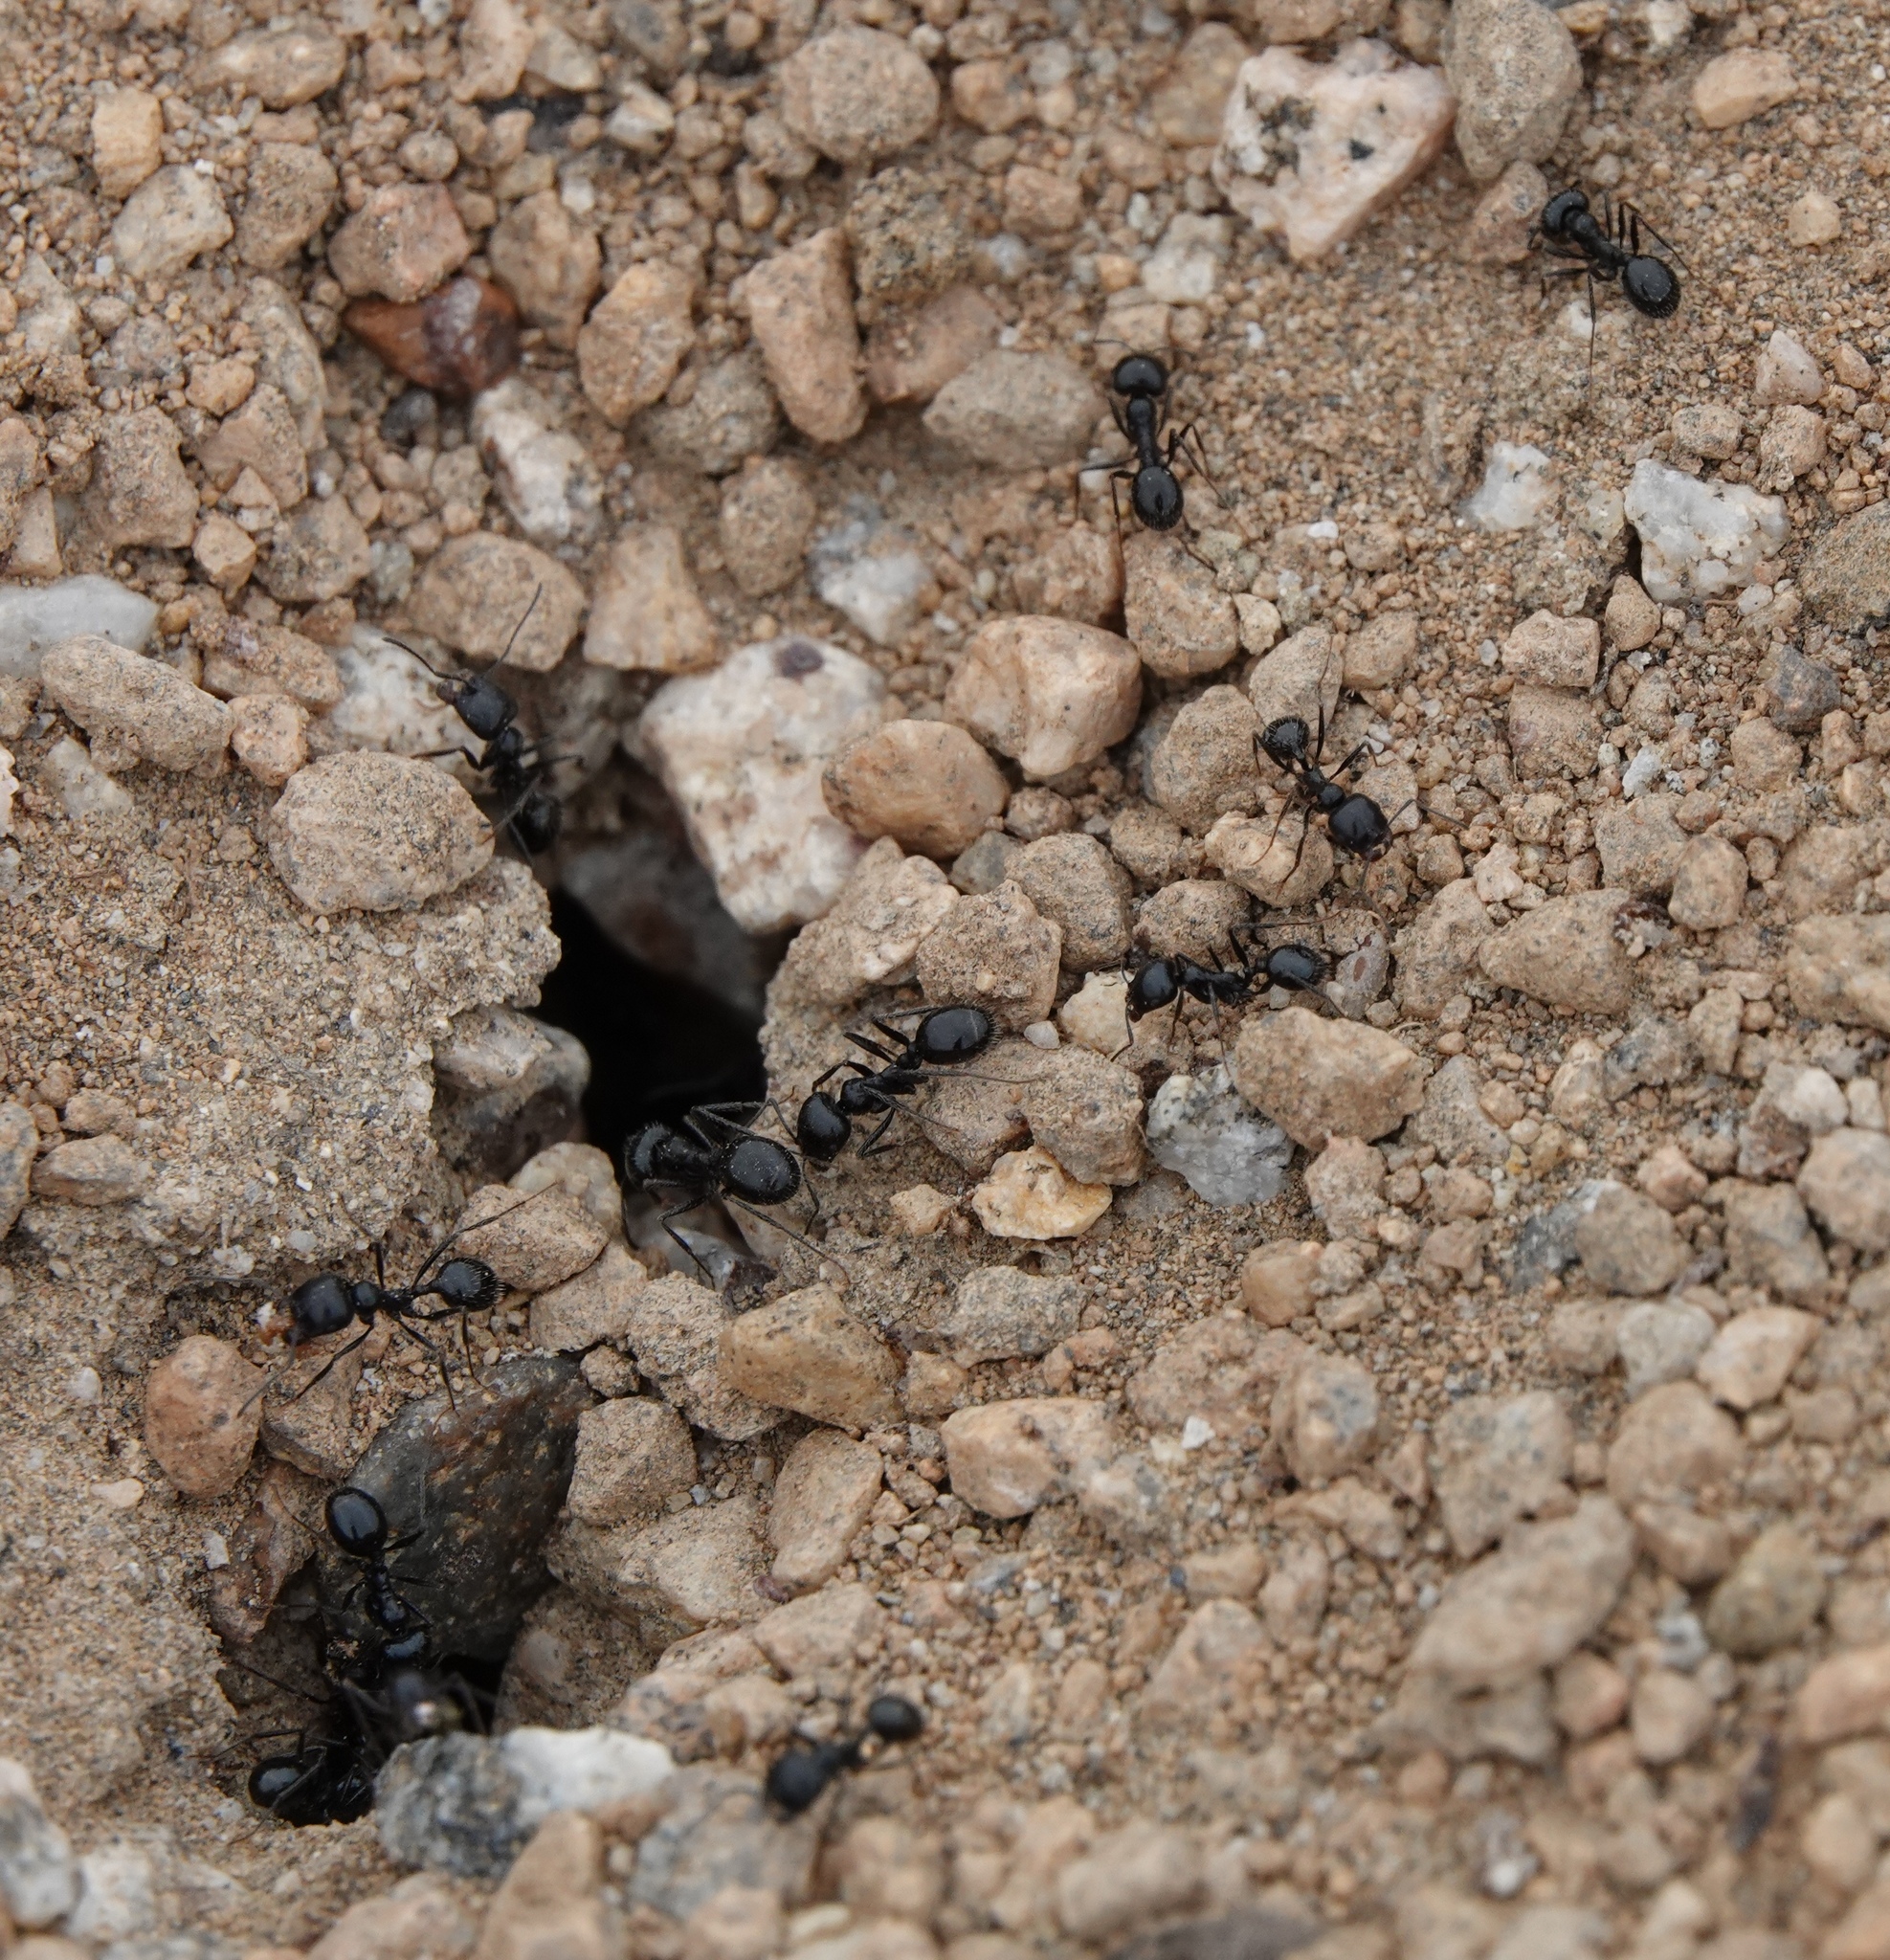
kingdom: Animalia
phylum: Arthropoda
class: Insecta
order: Hymenoptera
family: Formicidae
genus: Messor
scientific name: Messor pergandei
